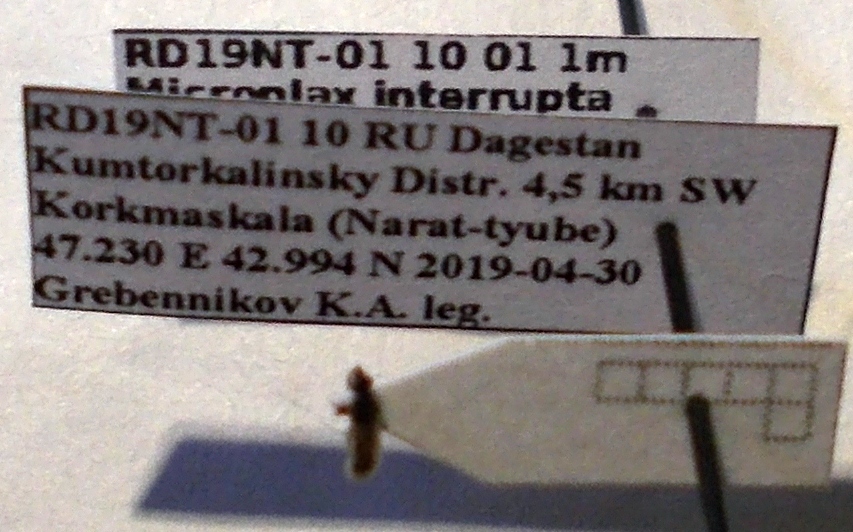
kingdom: Animalia
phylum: Arthropoda
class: Insecta
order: Hemiptera
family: Oxycarenidae
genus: Microplax
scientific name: Microplax interrupta
